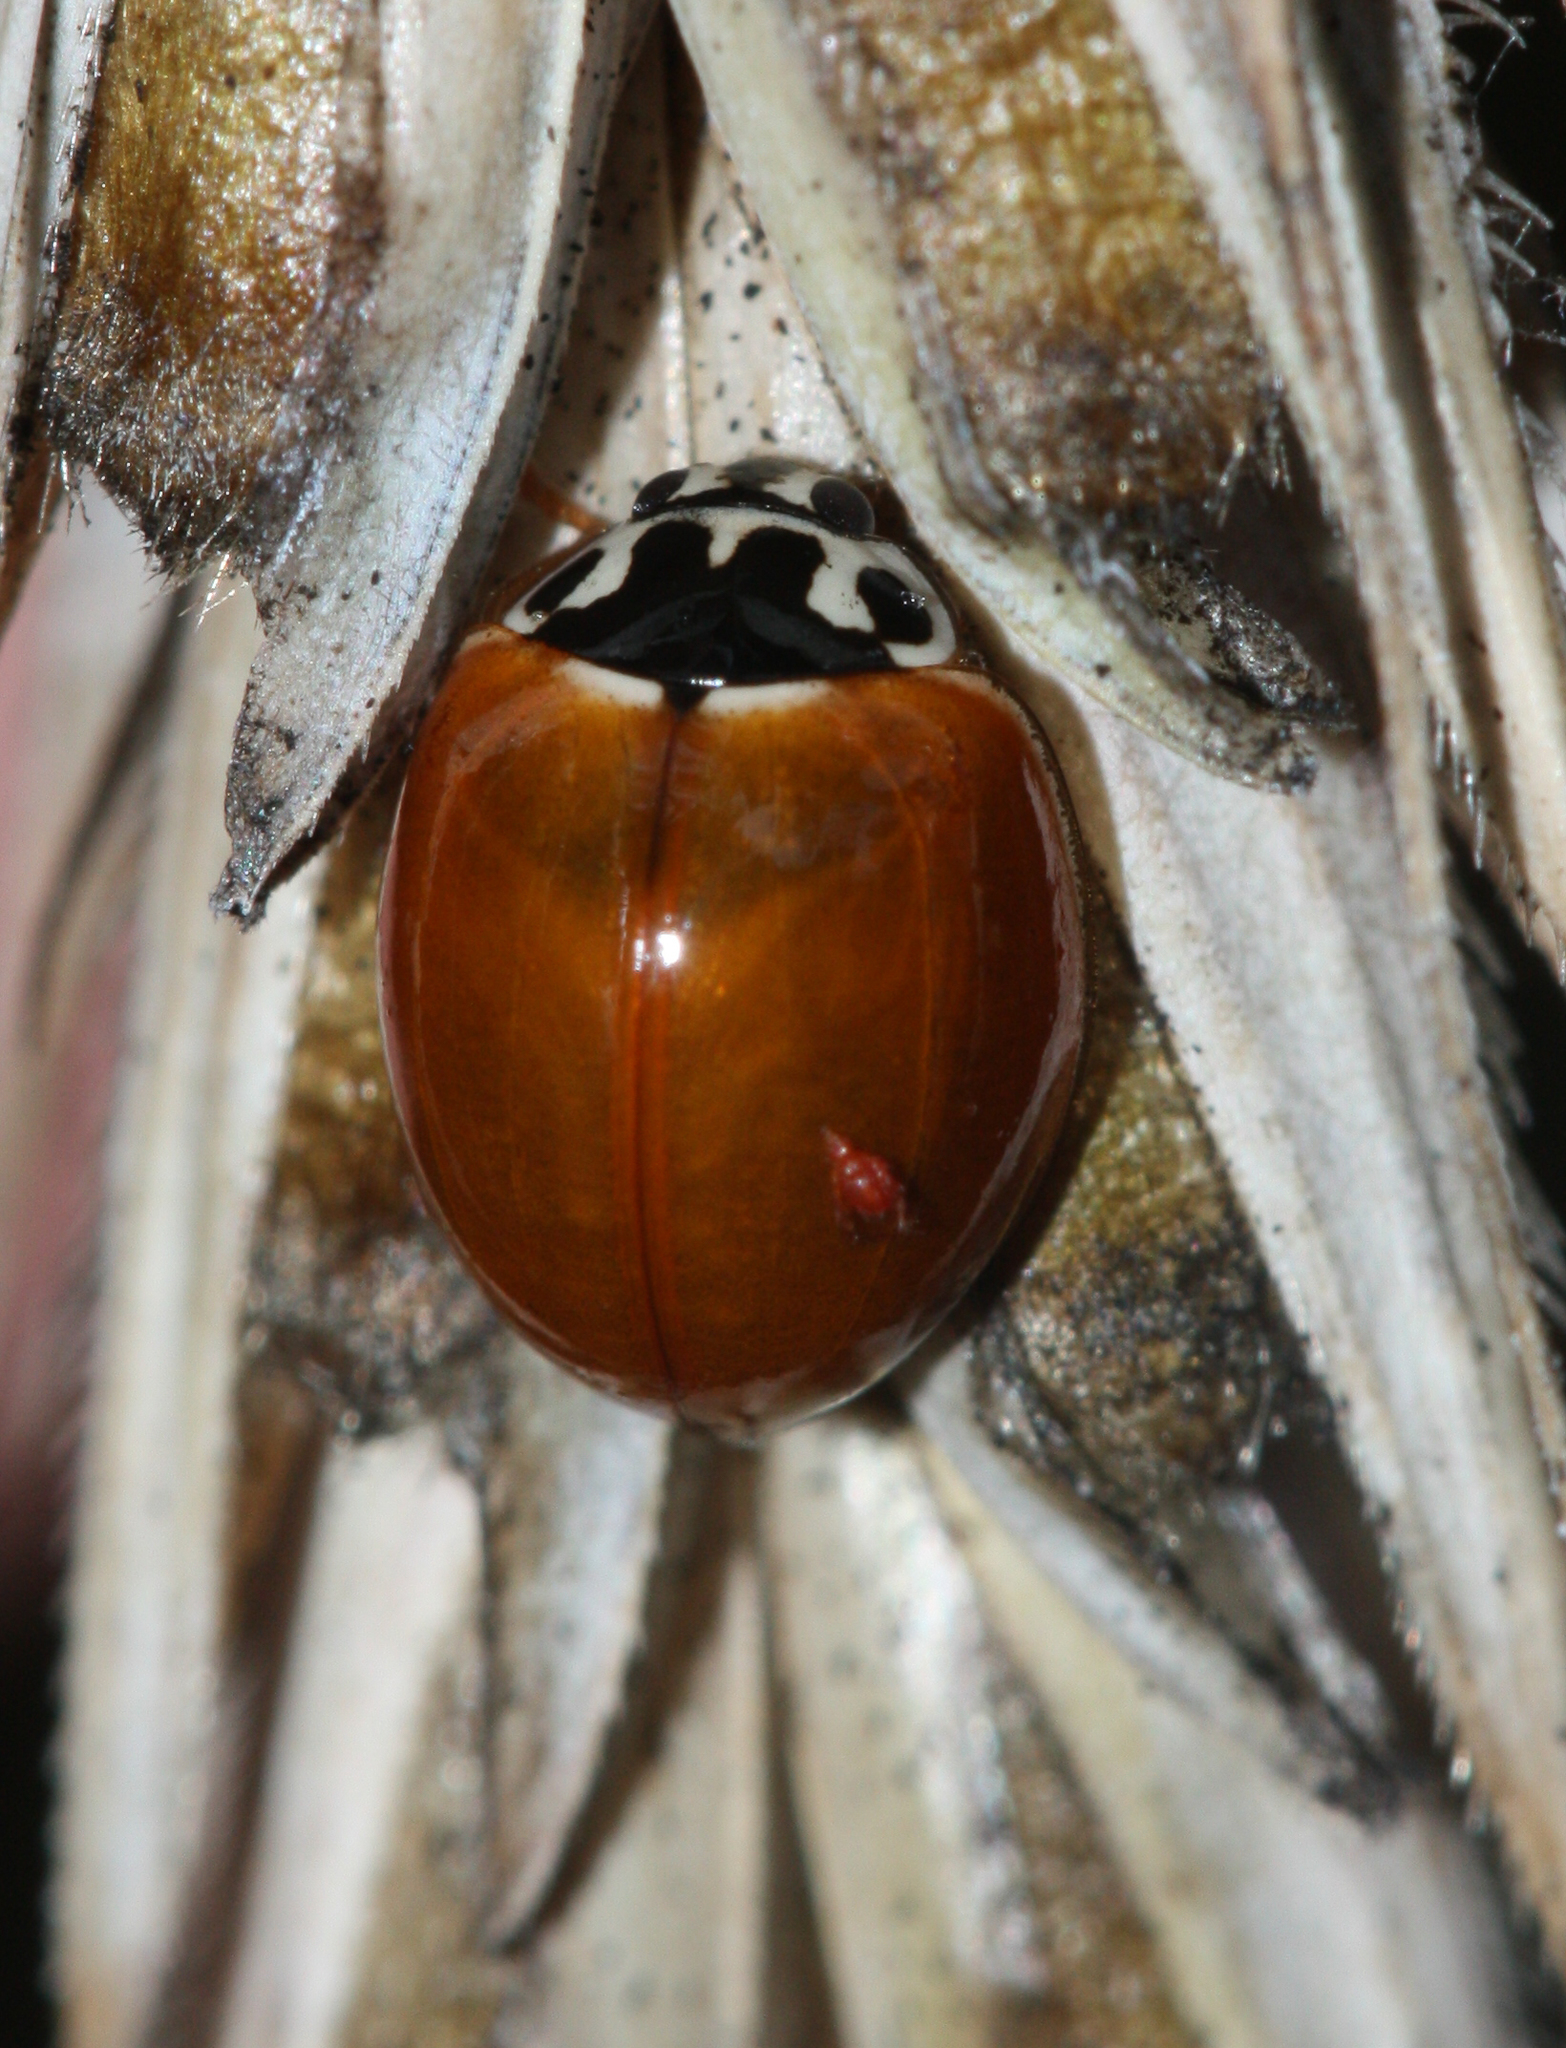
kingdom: Animalia
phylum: Arthropoda
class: Insecta
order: Coleoptera
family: Coccinellidae
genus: Cycloneda
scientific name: Cycloneda munda
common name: Polished lady beetle
